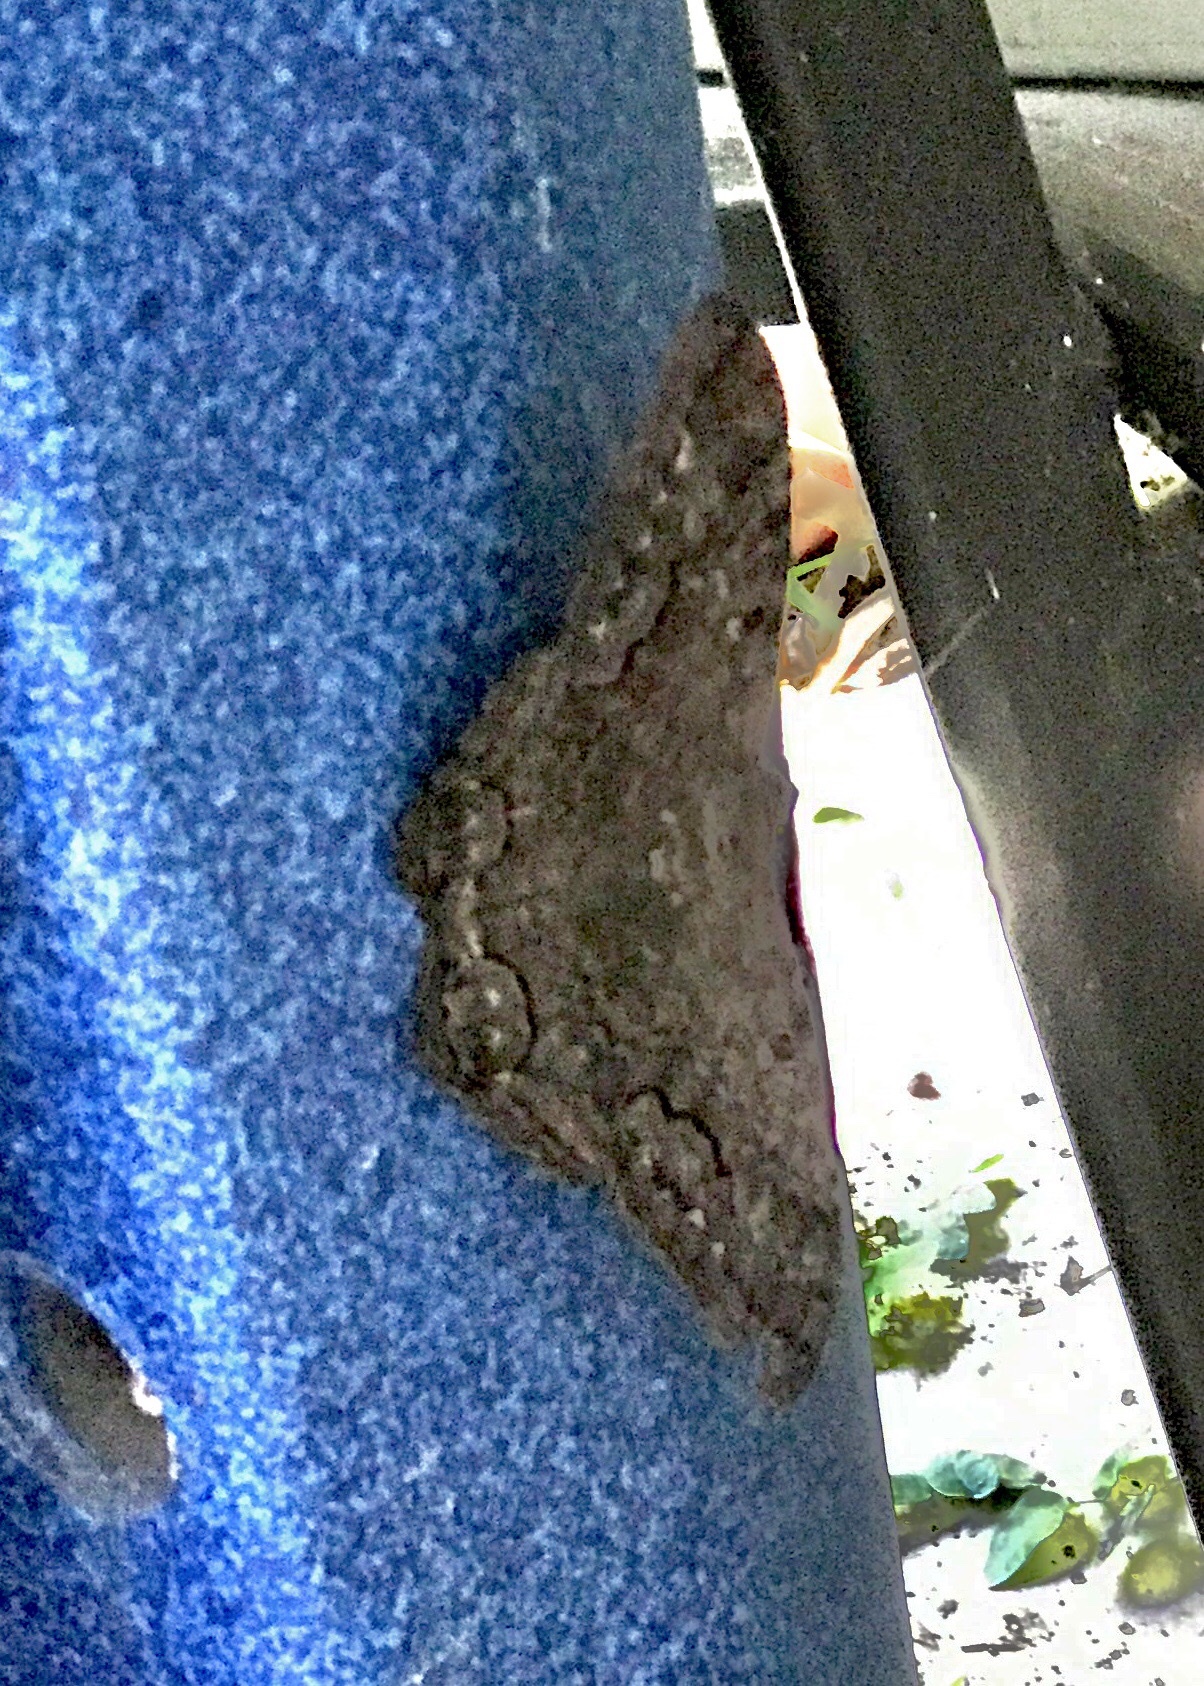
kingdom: Animalia
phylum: Arthropoda
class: Insecta
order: Lepidoptera
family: Erebidae
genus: Ascalapha
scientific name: Ascalapha odorata
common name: Black witch
